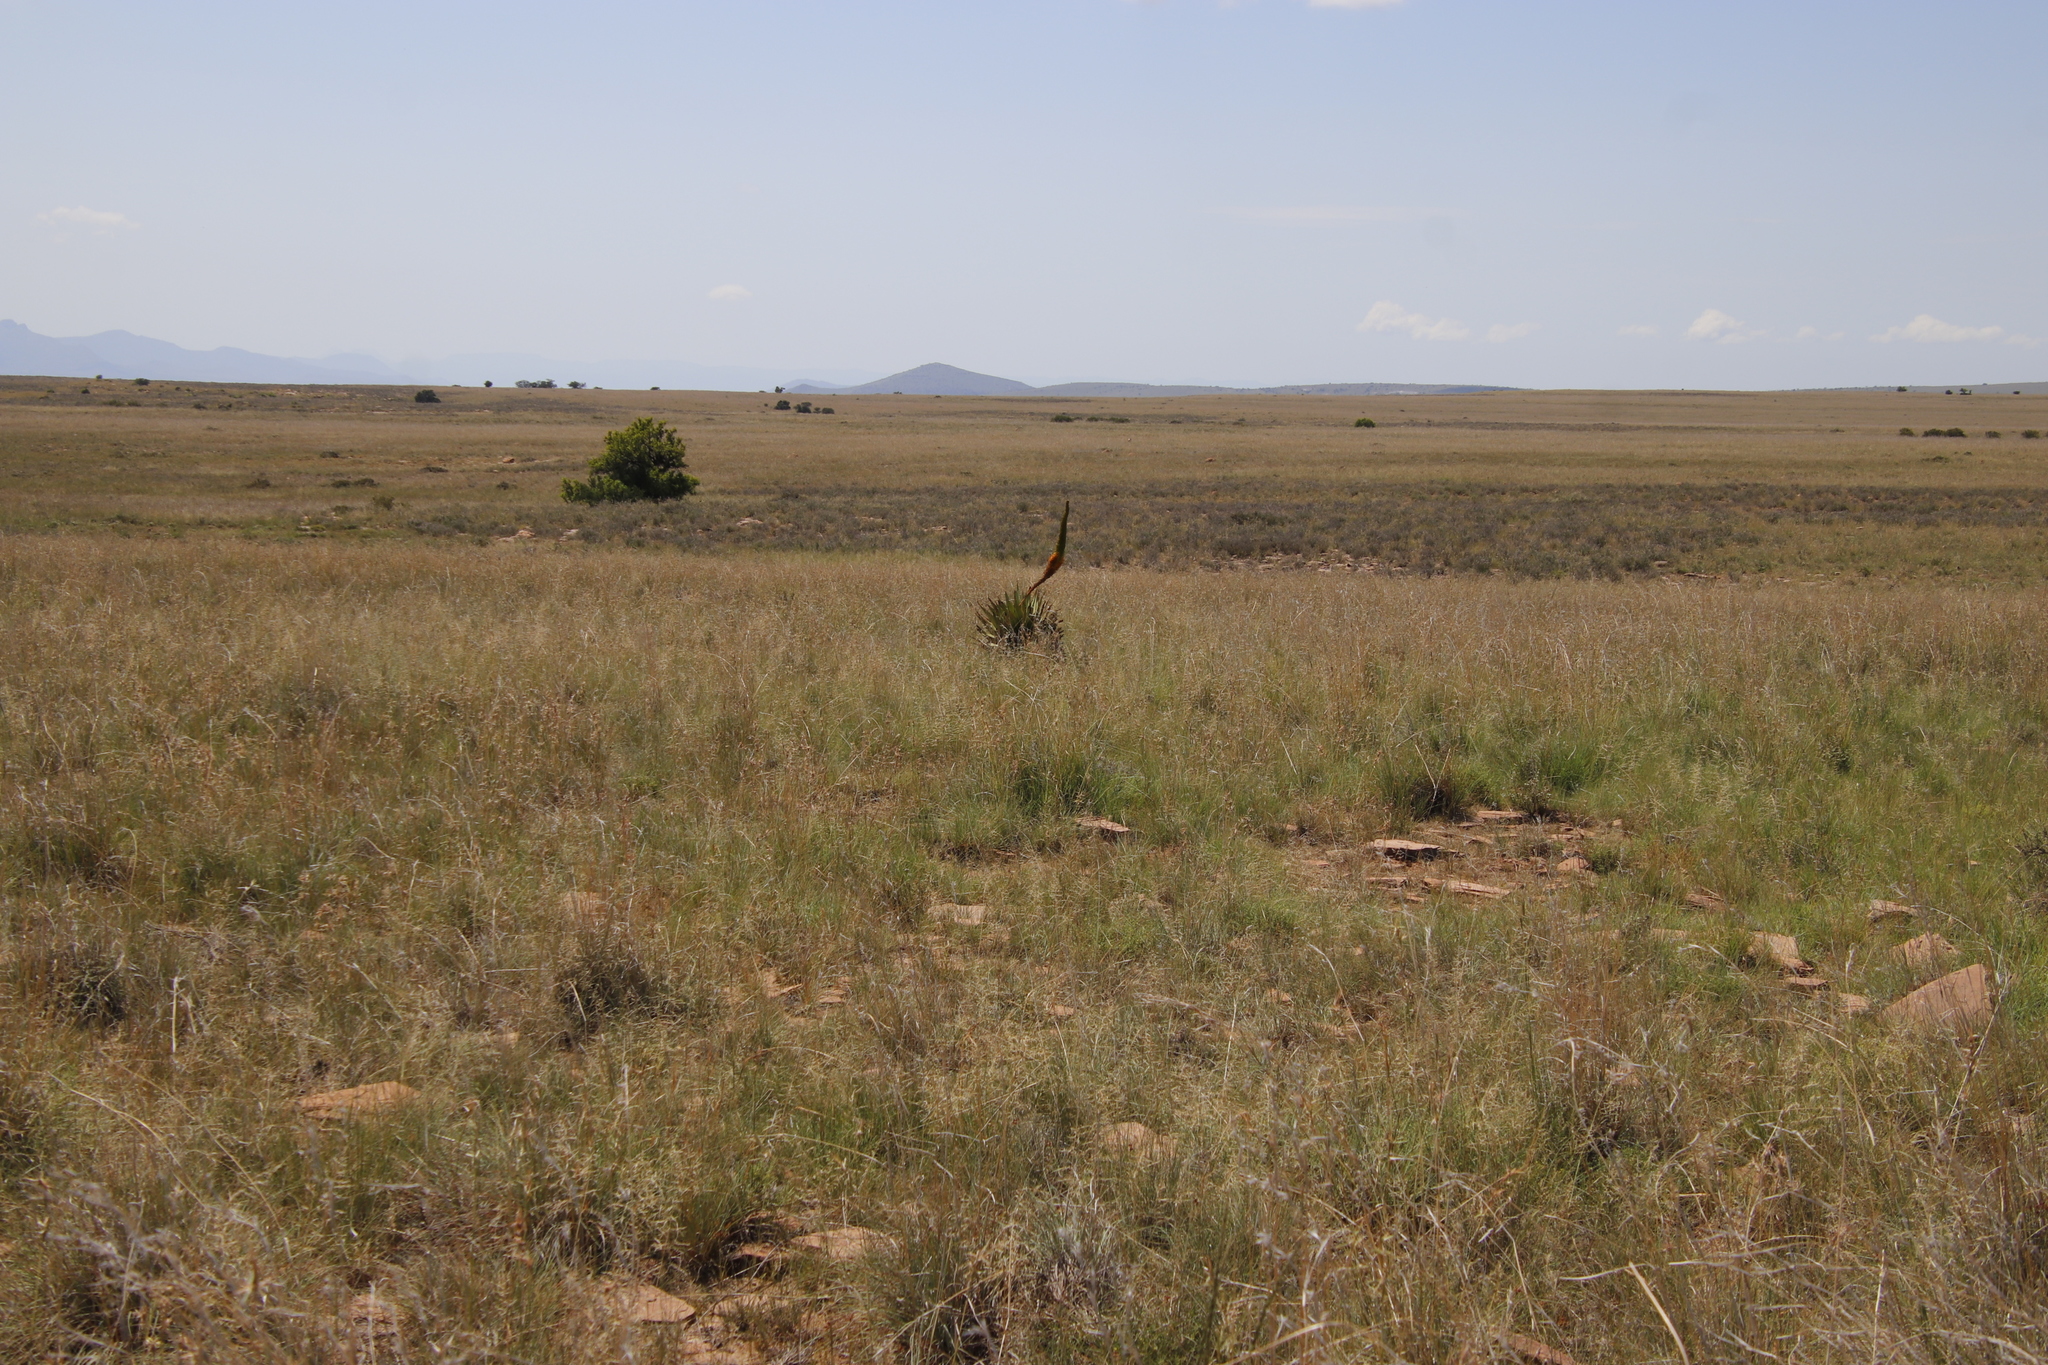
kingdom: Plantae
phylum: Tracheophyta
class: Liliopsida
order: Asparagales
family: Asphodelaceae
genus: Aloe
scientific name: Aloe broomii
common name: Berg alwyn
